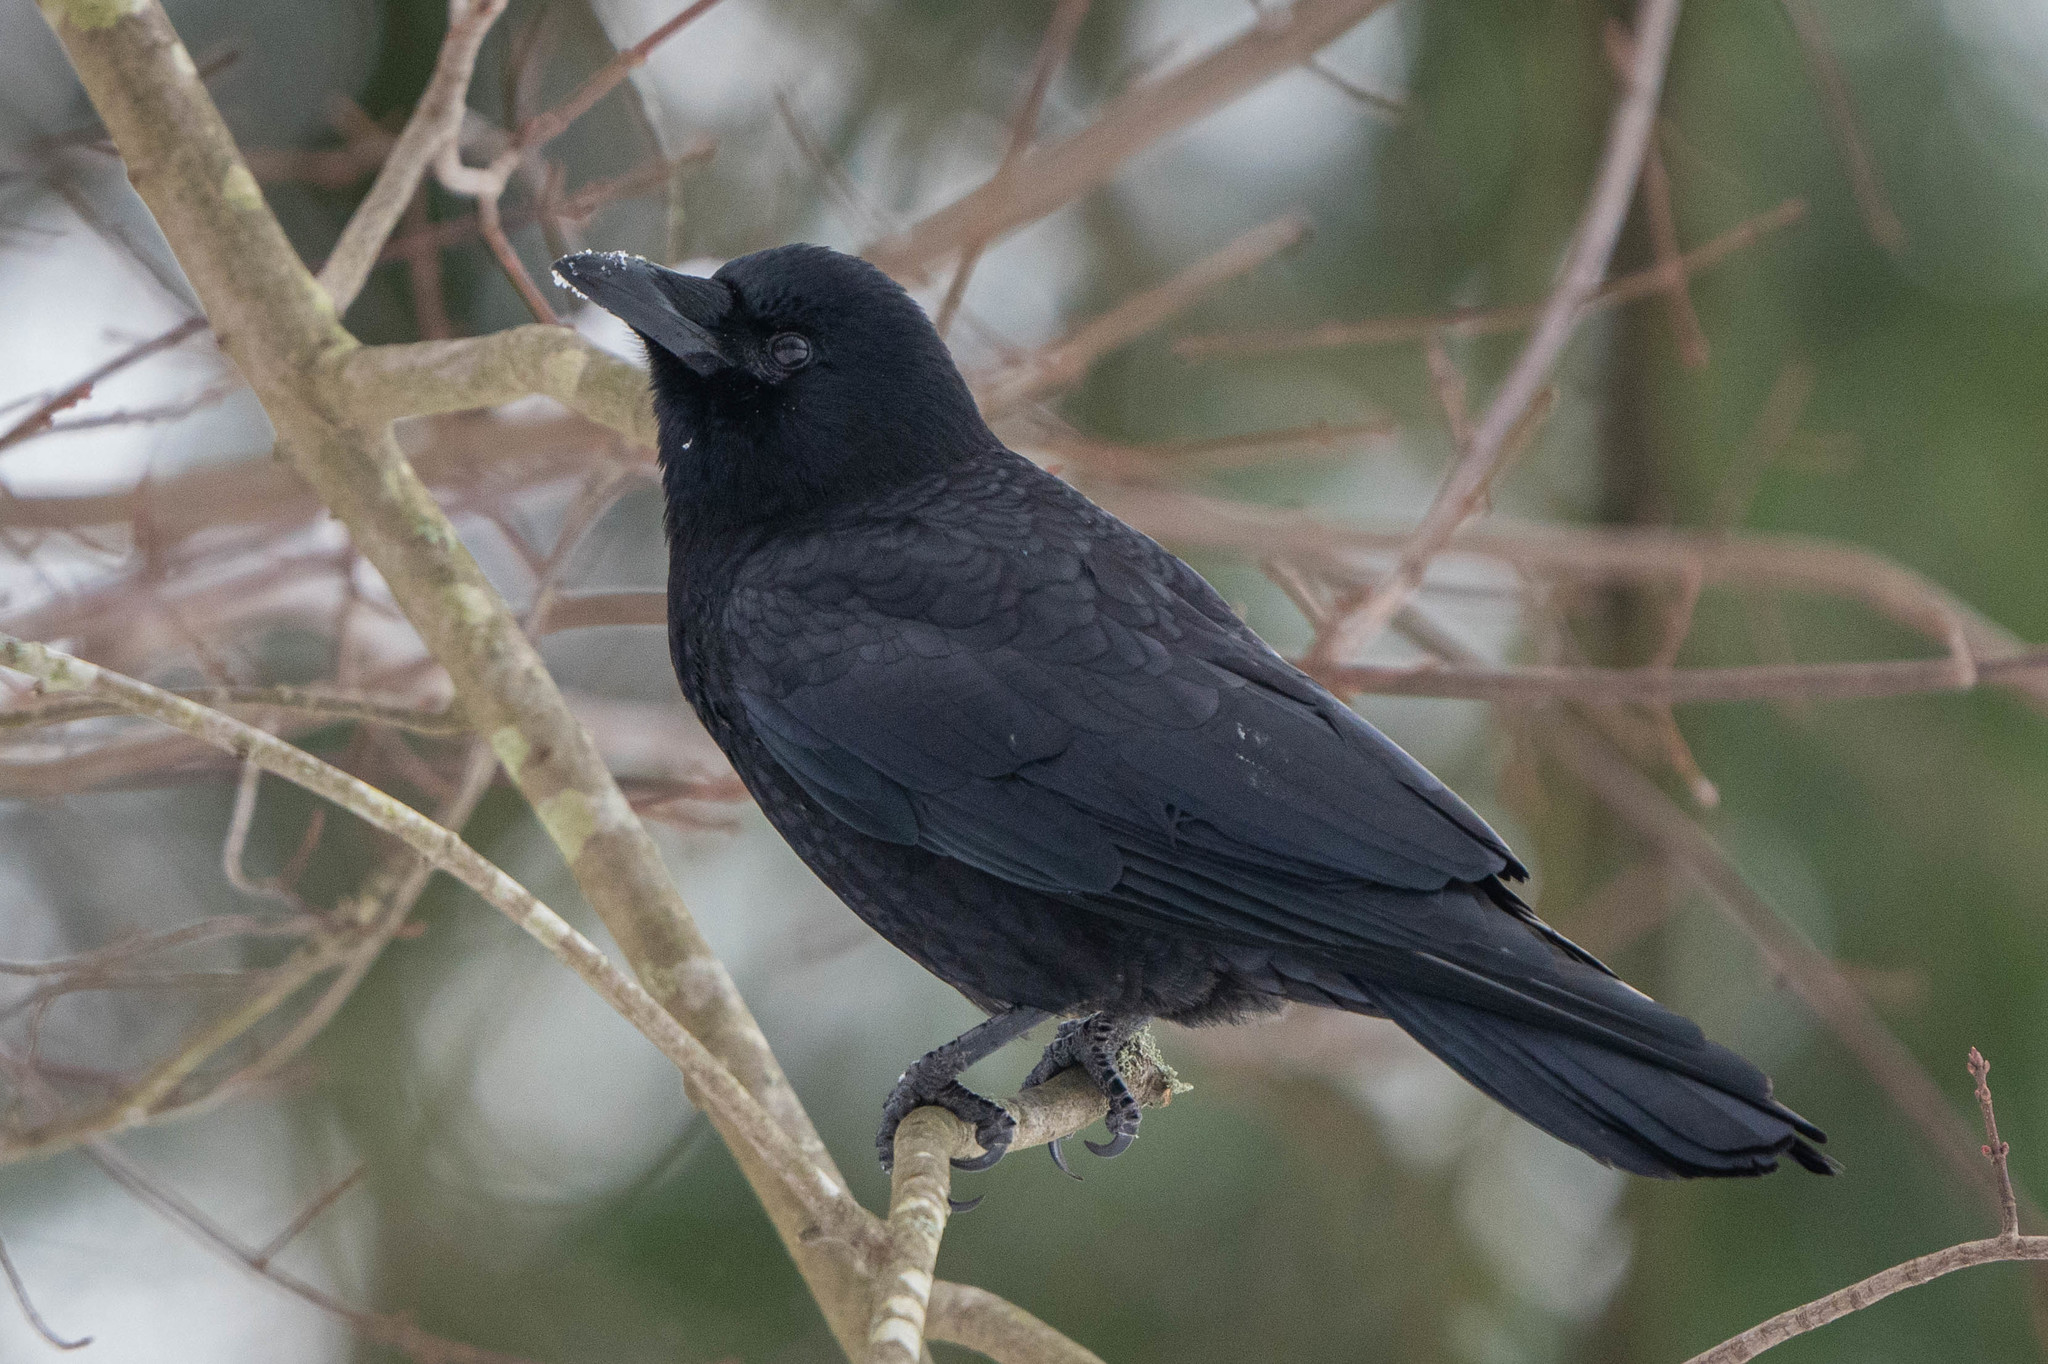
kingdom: Animalia
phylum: Chordata
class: Aves
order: Passeriformes
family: Corvidae
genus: Corvus
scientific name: Corvus brachyrhynchos
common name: American crow
